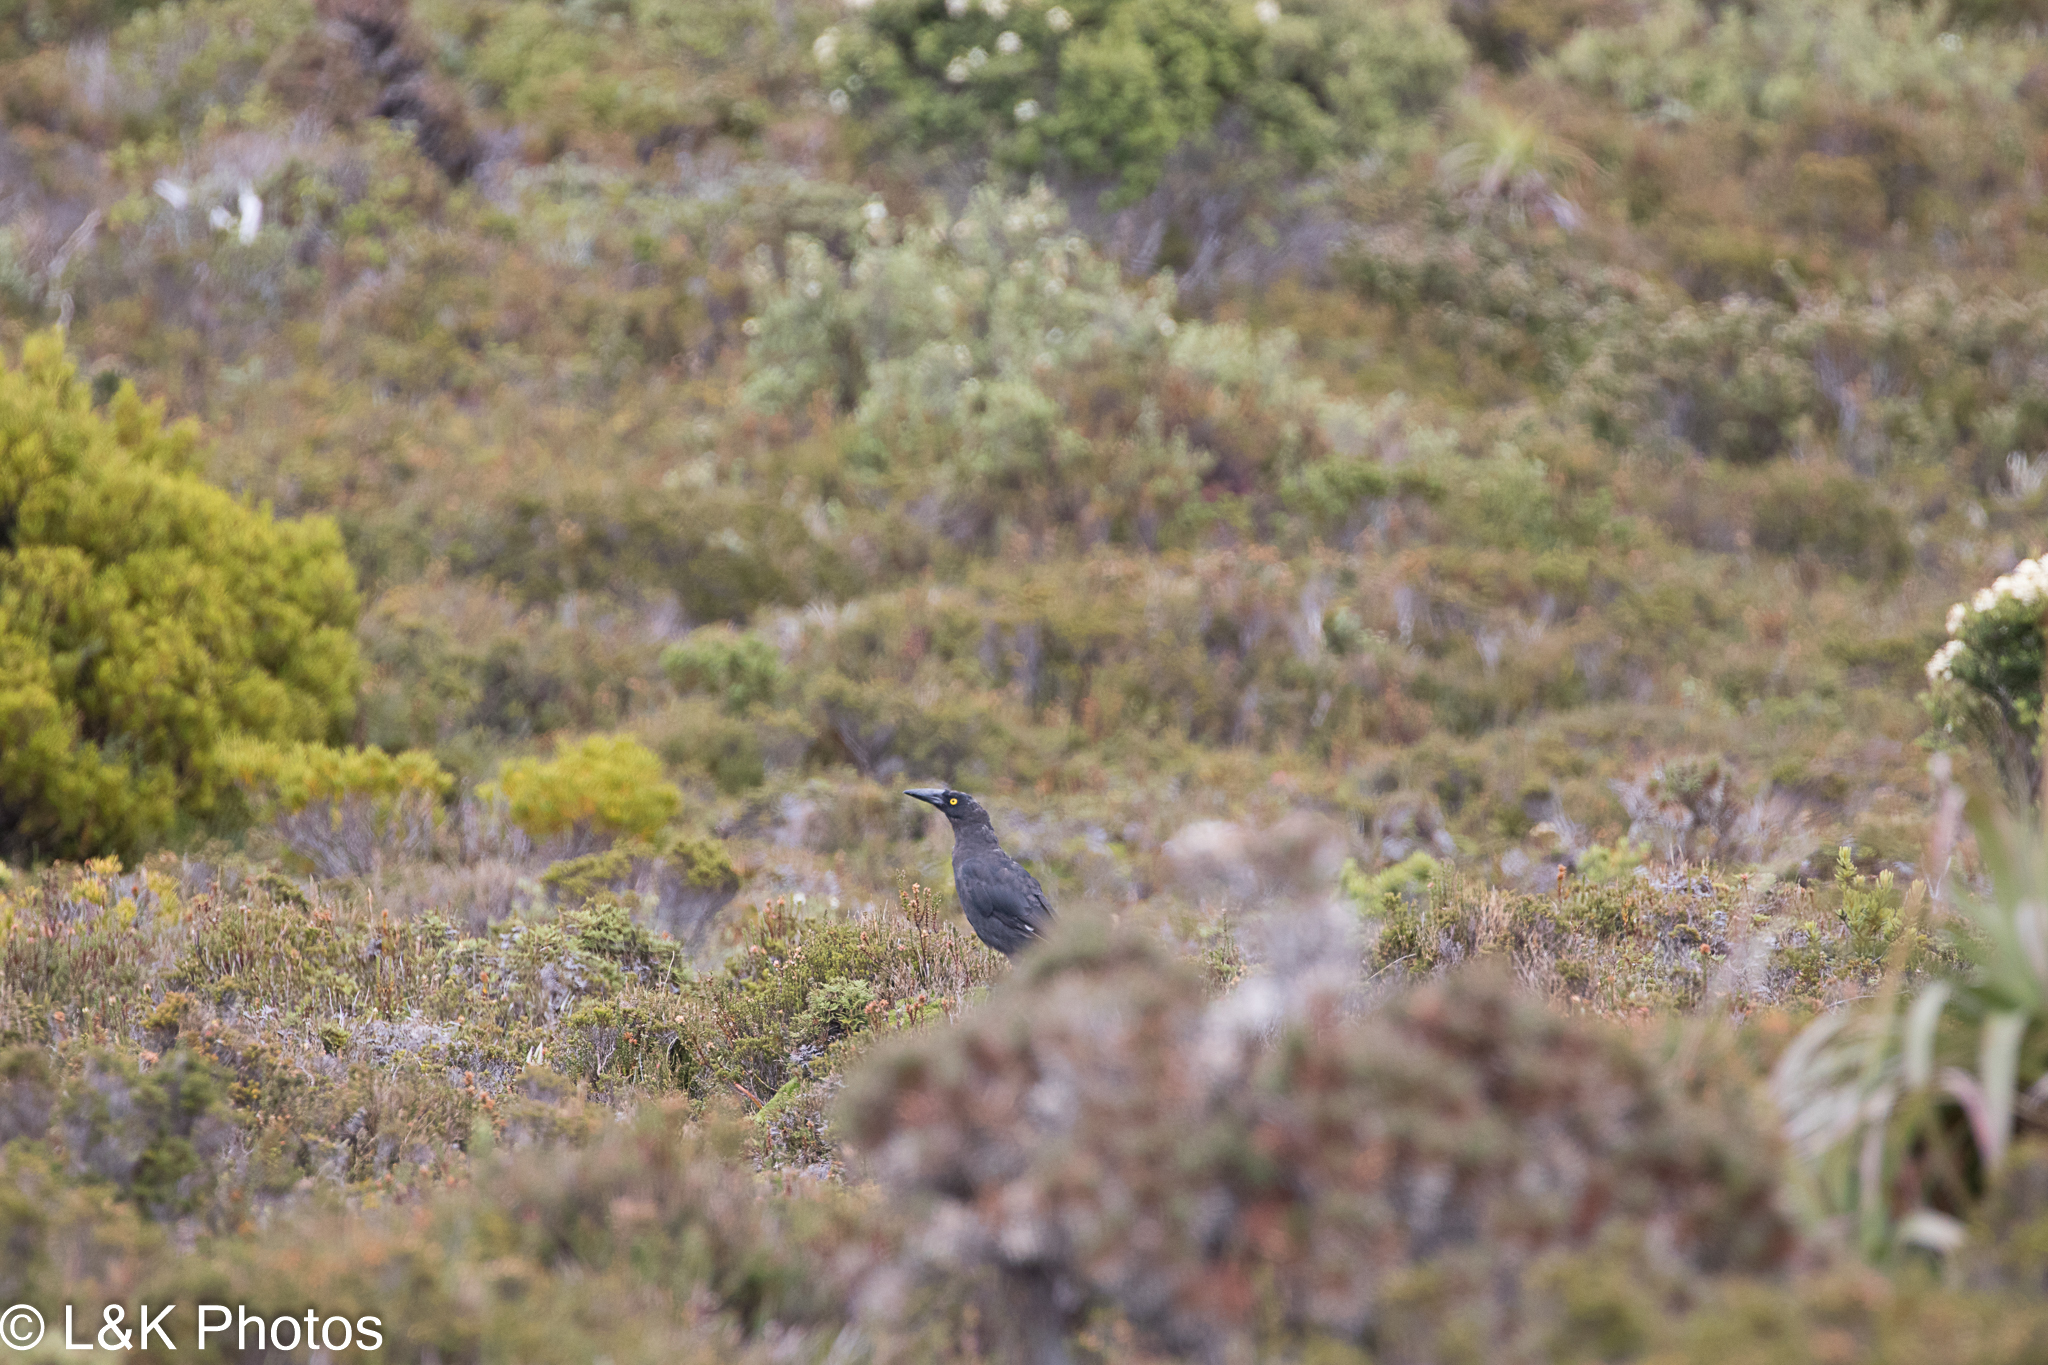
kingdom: Animalia
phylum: Chordata
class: Aves
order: Passeriformes
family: Cracticidae
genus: Strepera
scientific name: Strepera fuliginosa
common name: Black currawong
